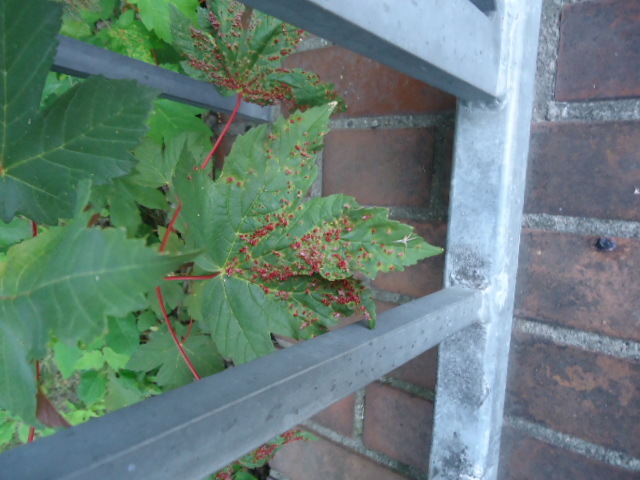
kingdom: Animalia
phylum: Arthropoda
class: Arachnida
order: Trombidiformes
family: Eriophyidae
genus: Aceria
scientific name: Aceria macrorhynchus
